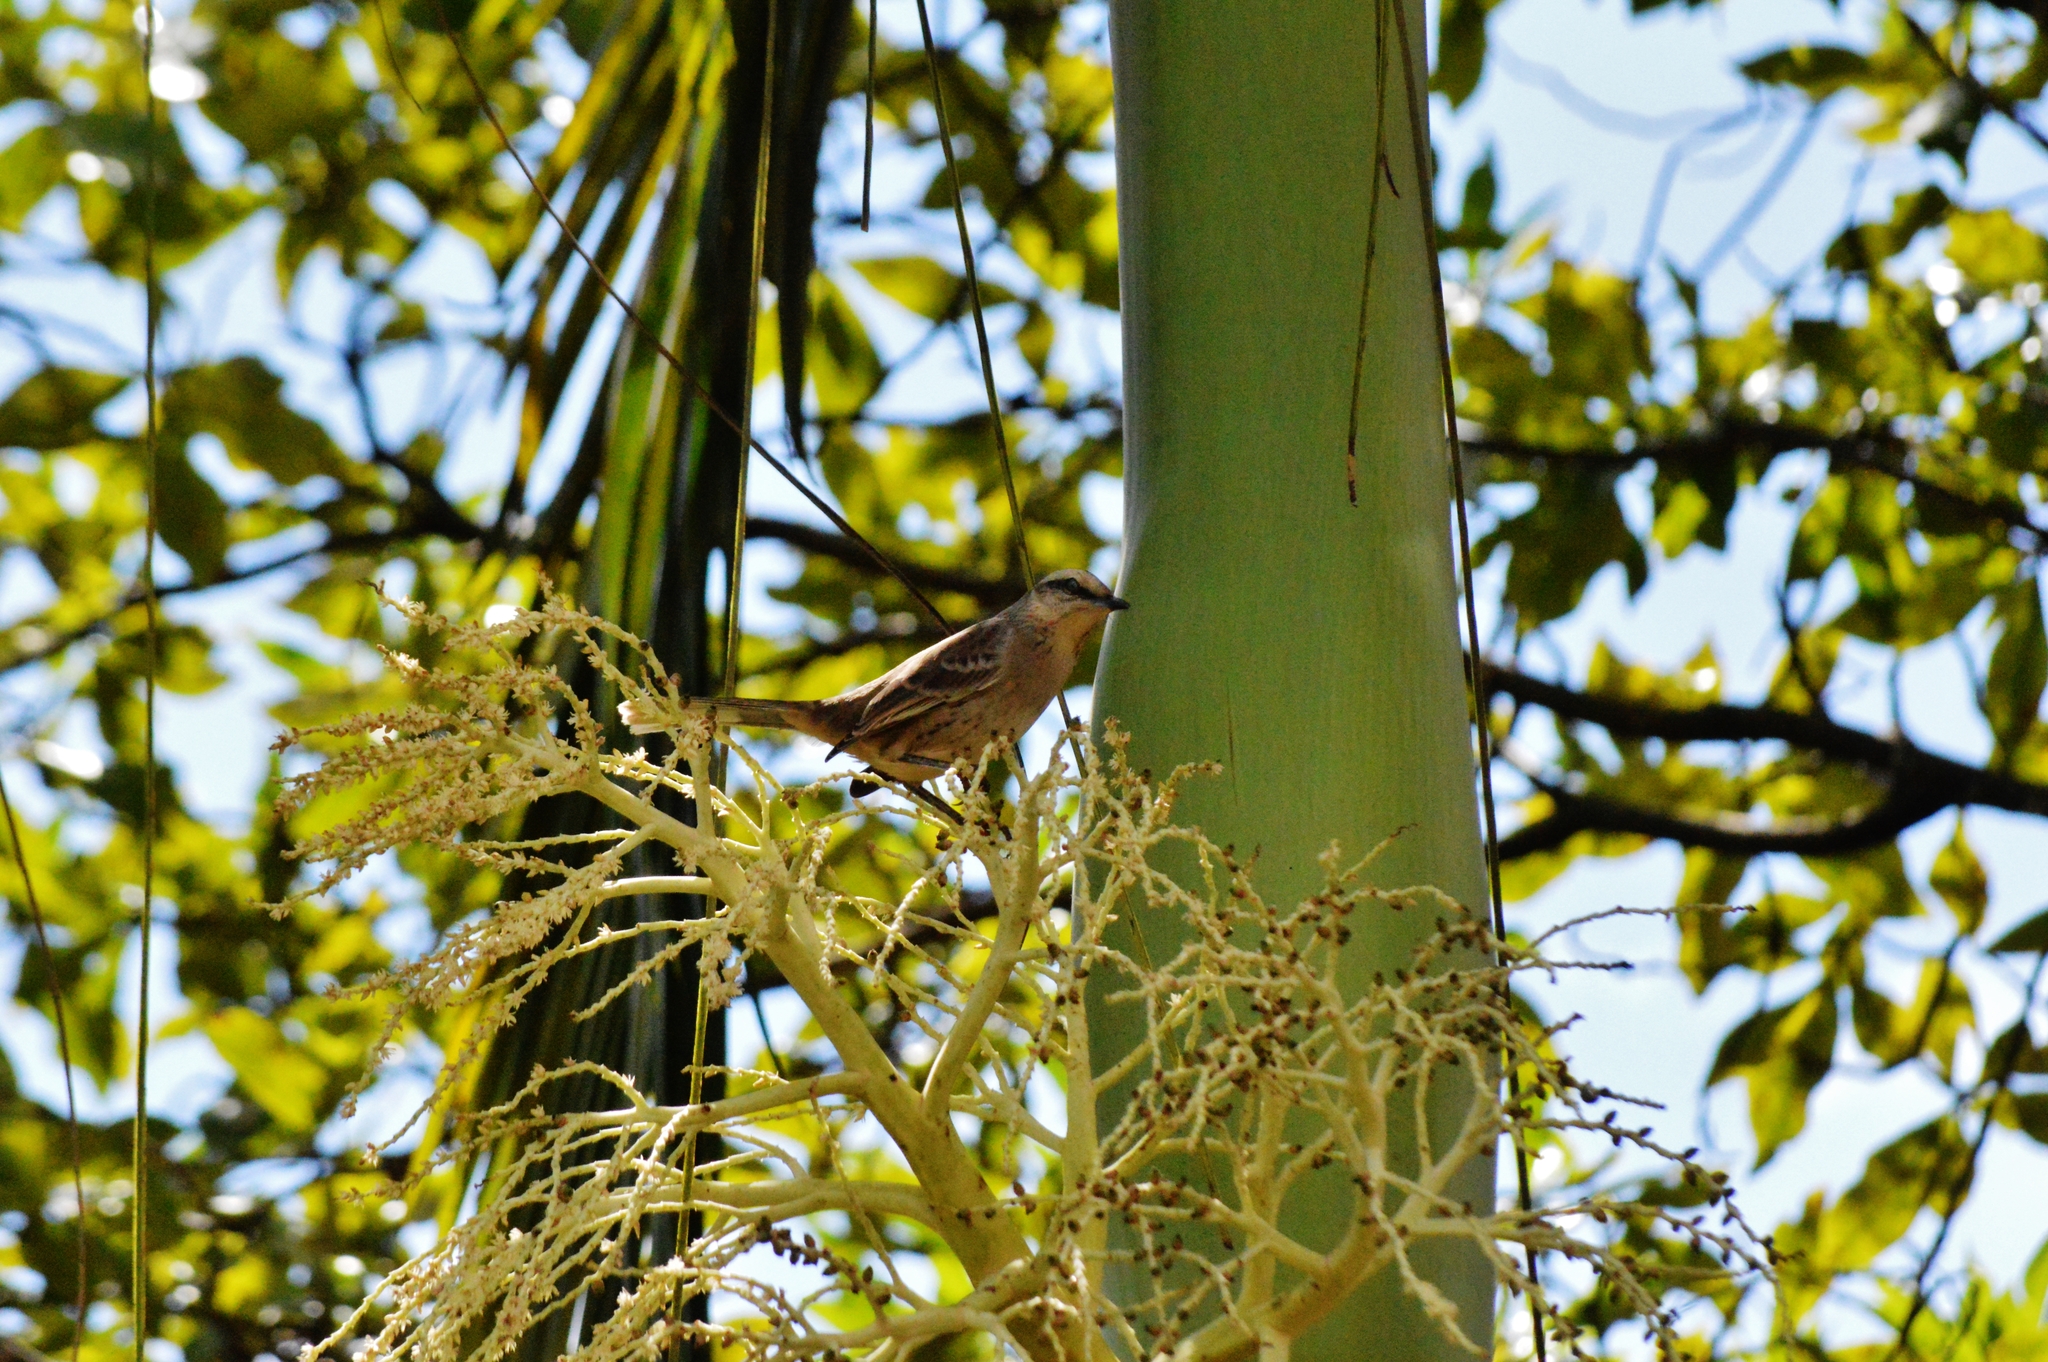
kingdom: Animalia
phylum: Chordata
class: Aves
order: Passeriformes
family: Mimidae
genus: Mimus
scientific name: Mimus saturninus
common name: Chalk-browed mockingbird
